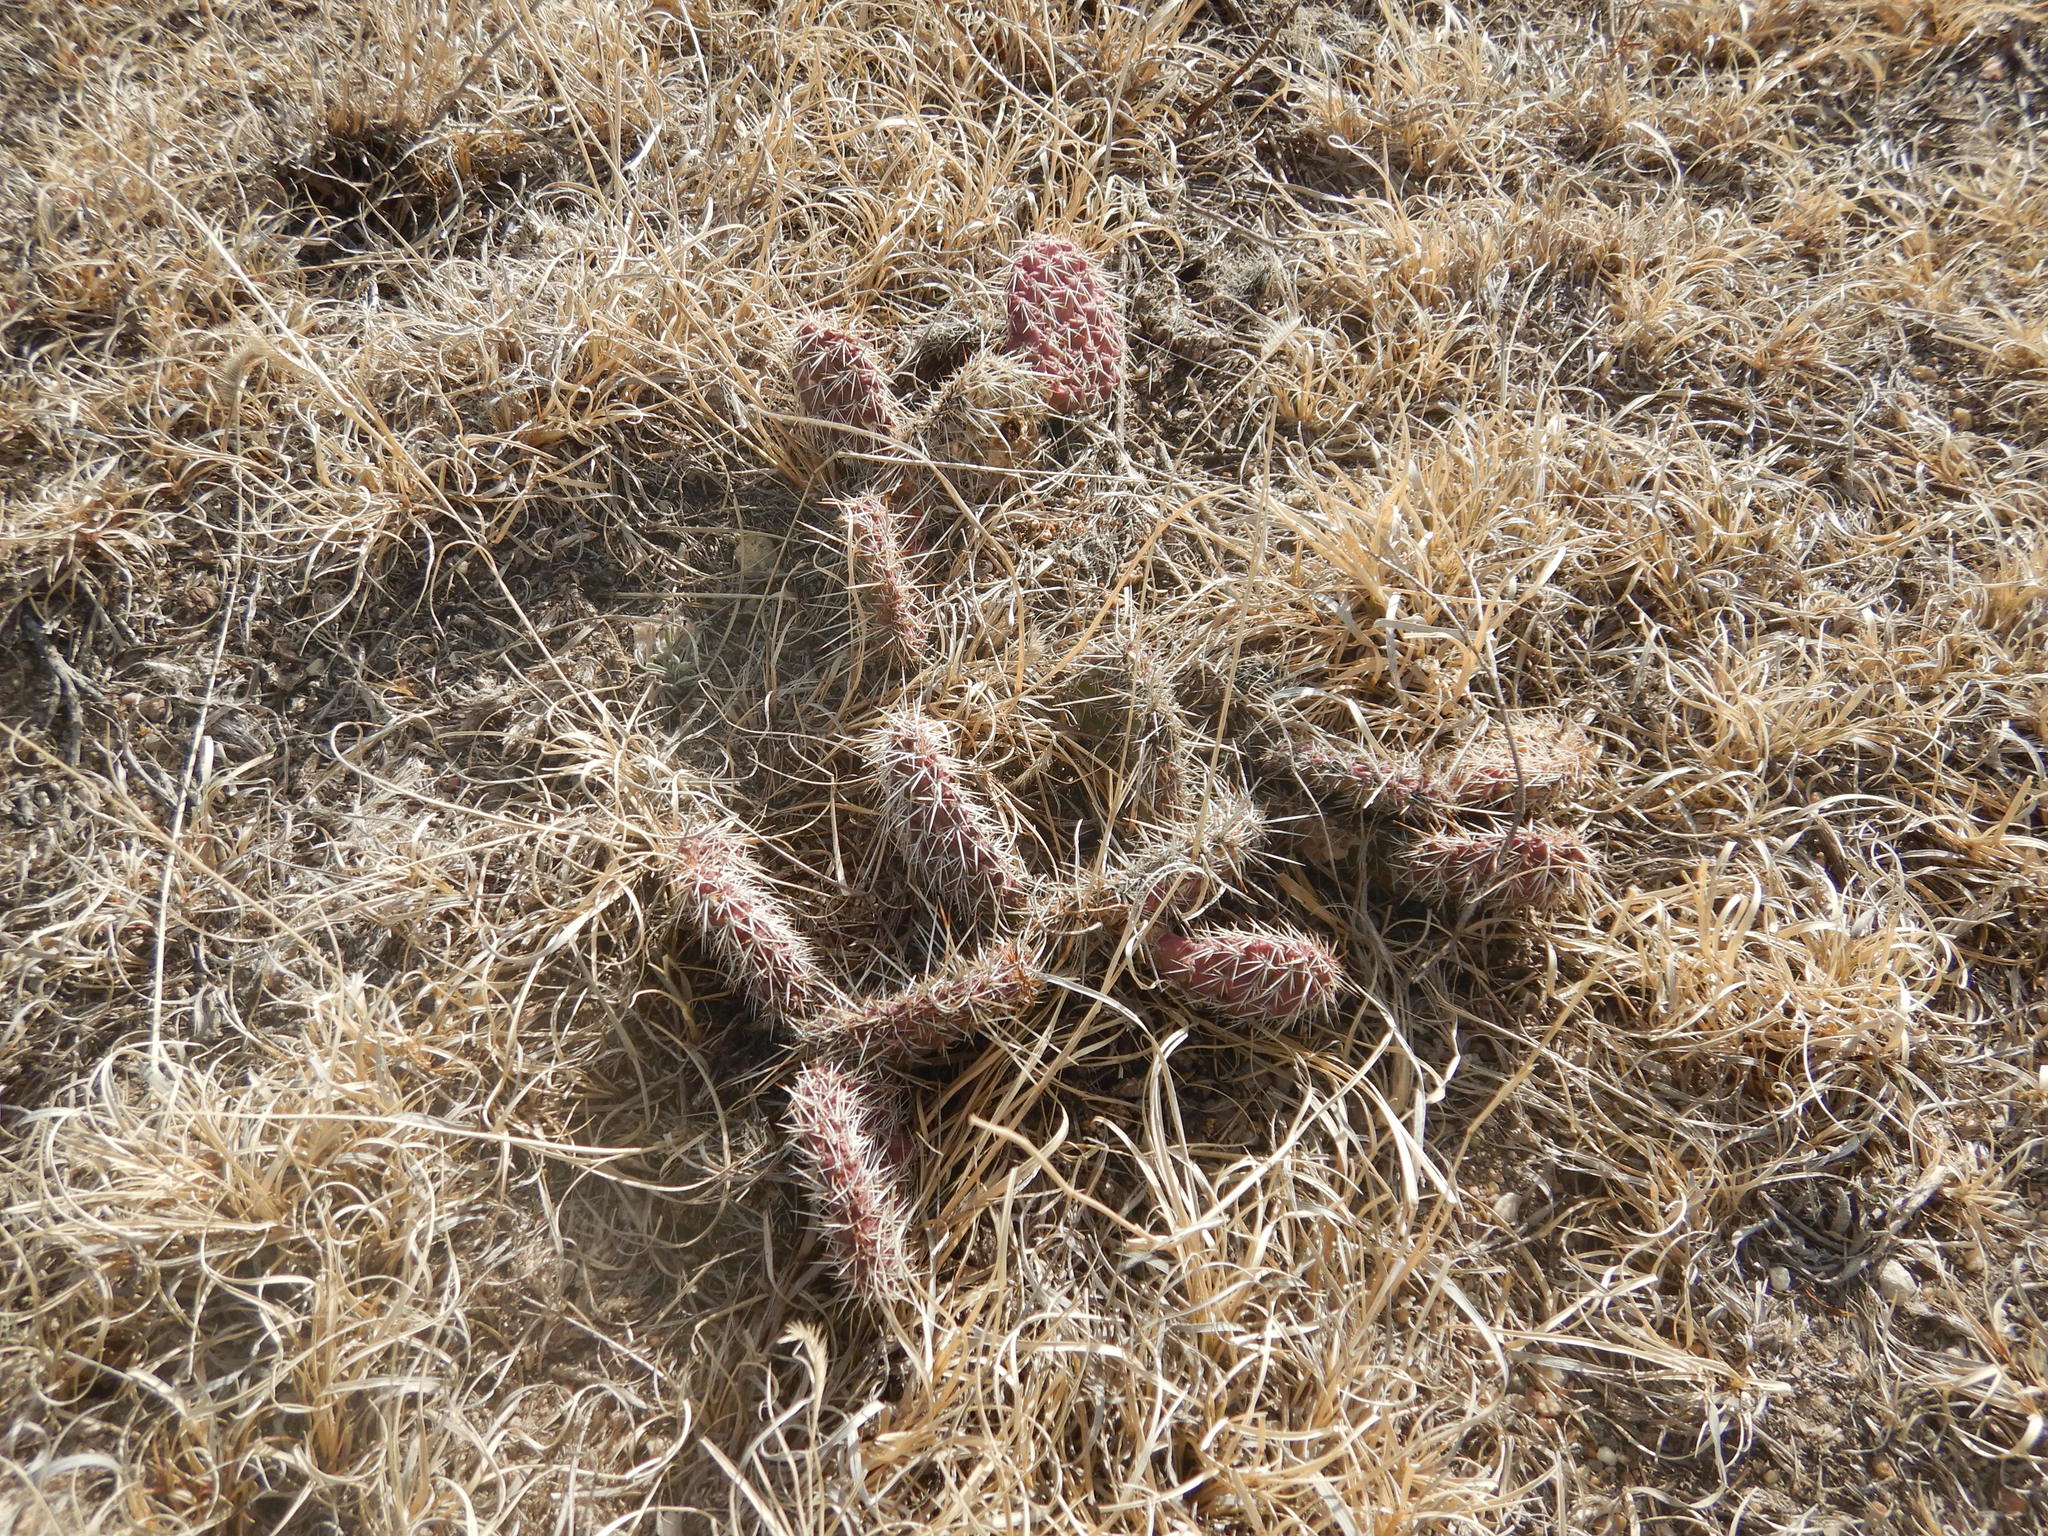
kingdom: Plantae
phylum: Tracheophyta
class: Magnoliopsida
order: Caryophyllales
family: Cactaceae
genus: Opuntia
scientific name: Opuntia macrorhiza
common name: Grassland pricklypear
